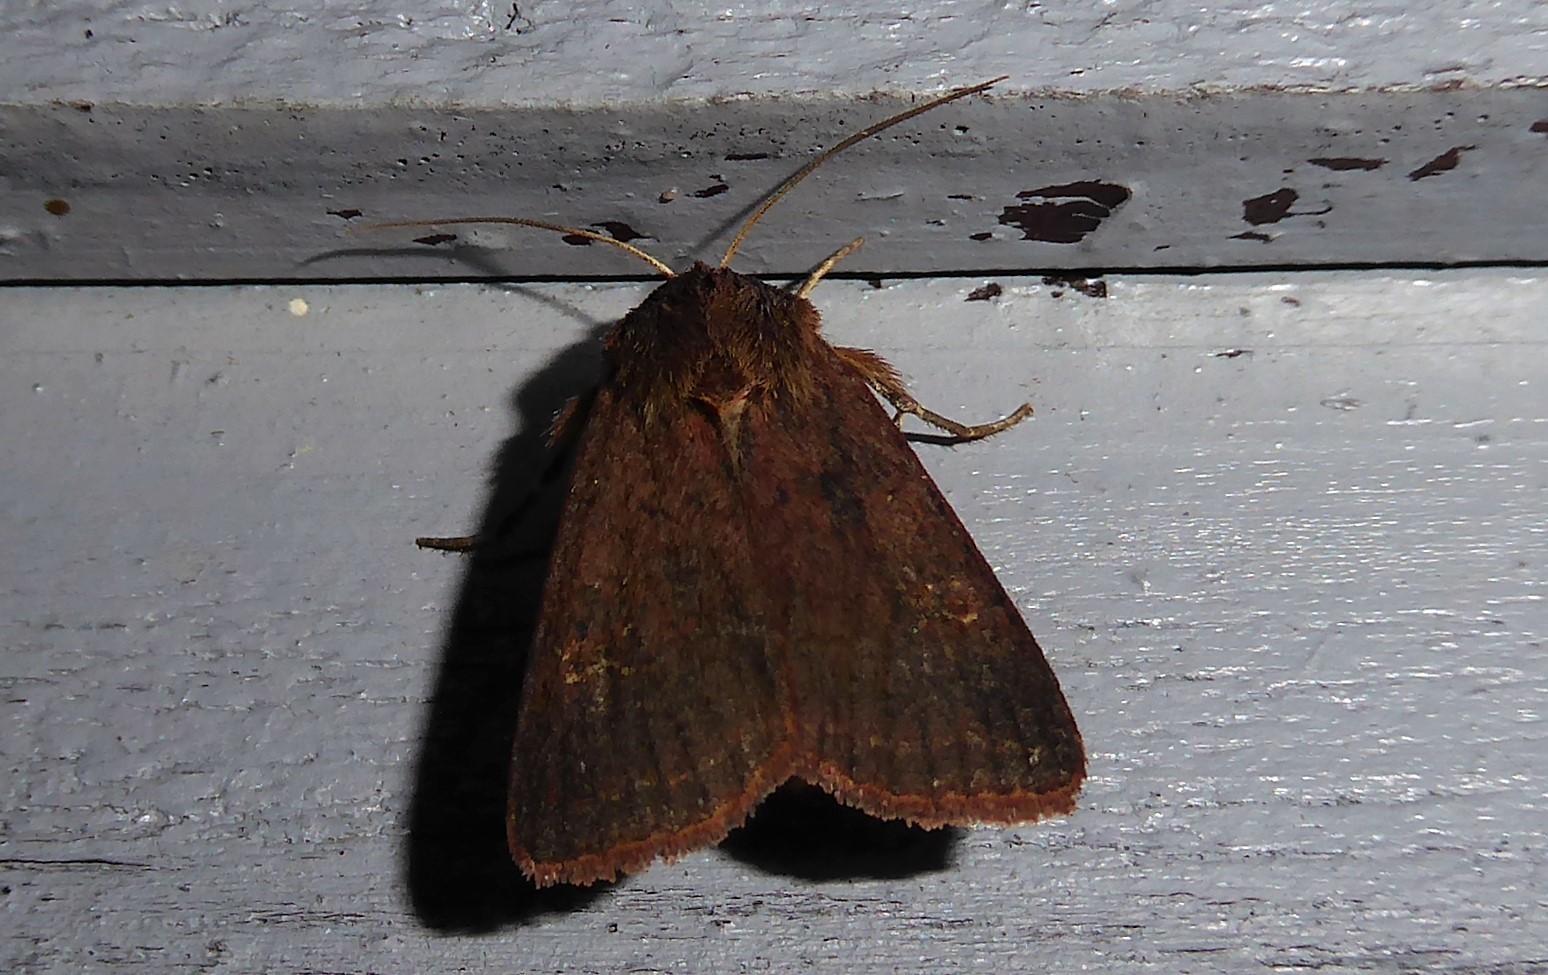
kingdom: Animalia
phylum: Arthropoda
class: Insecta
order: Lepidoptera
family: Noctuidae
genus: Diarsia
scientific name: Diarsia intermixta
